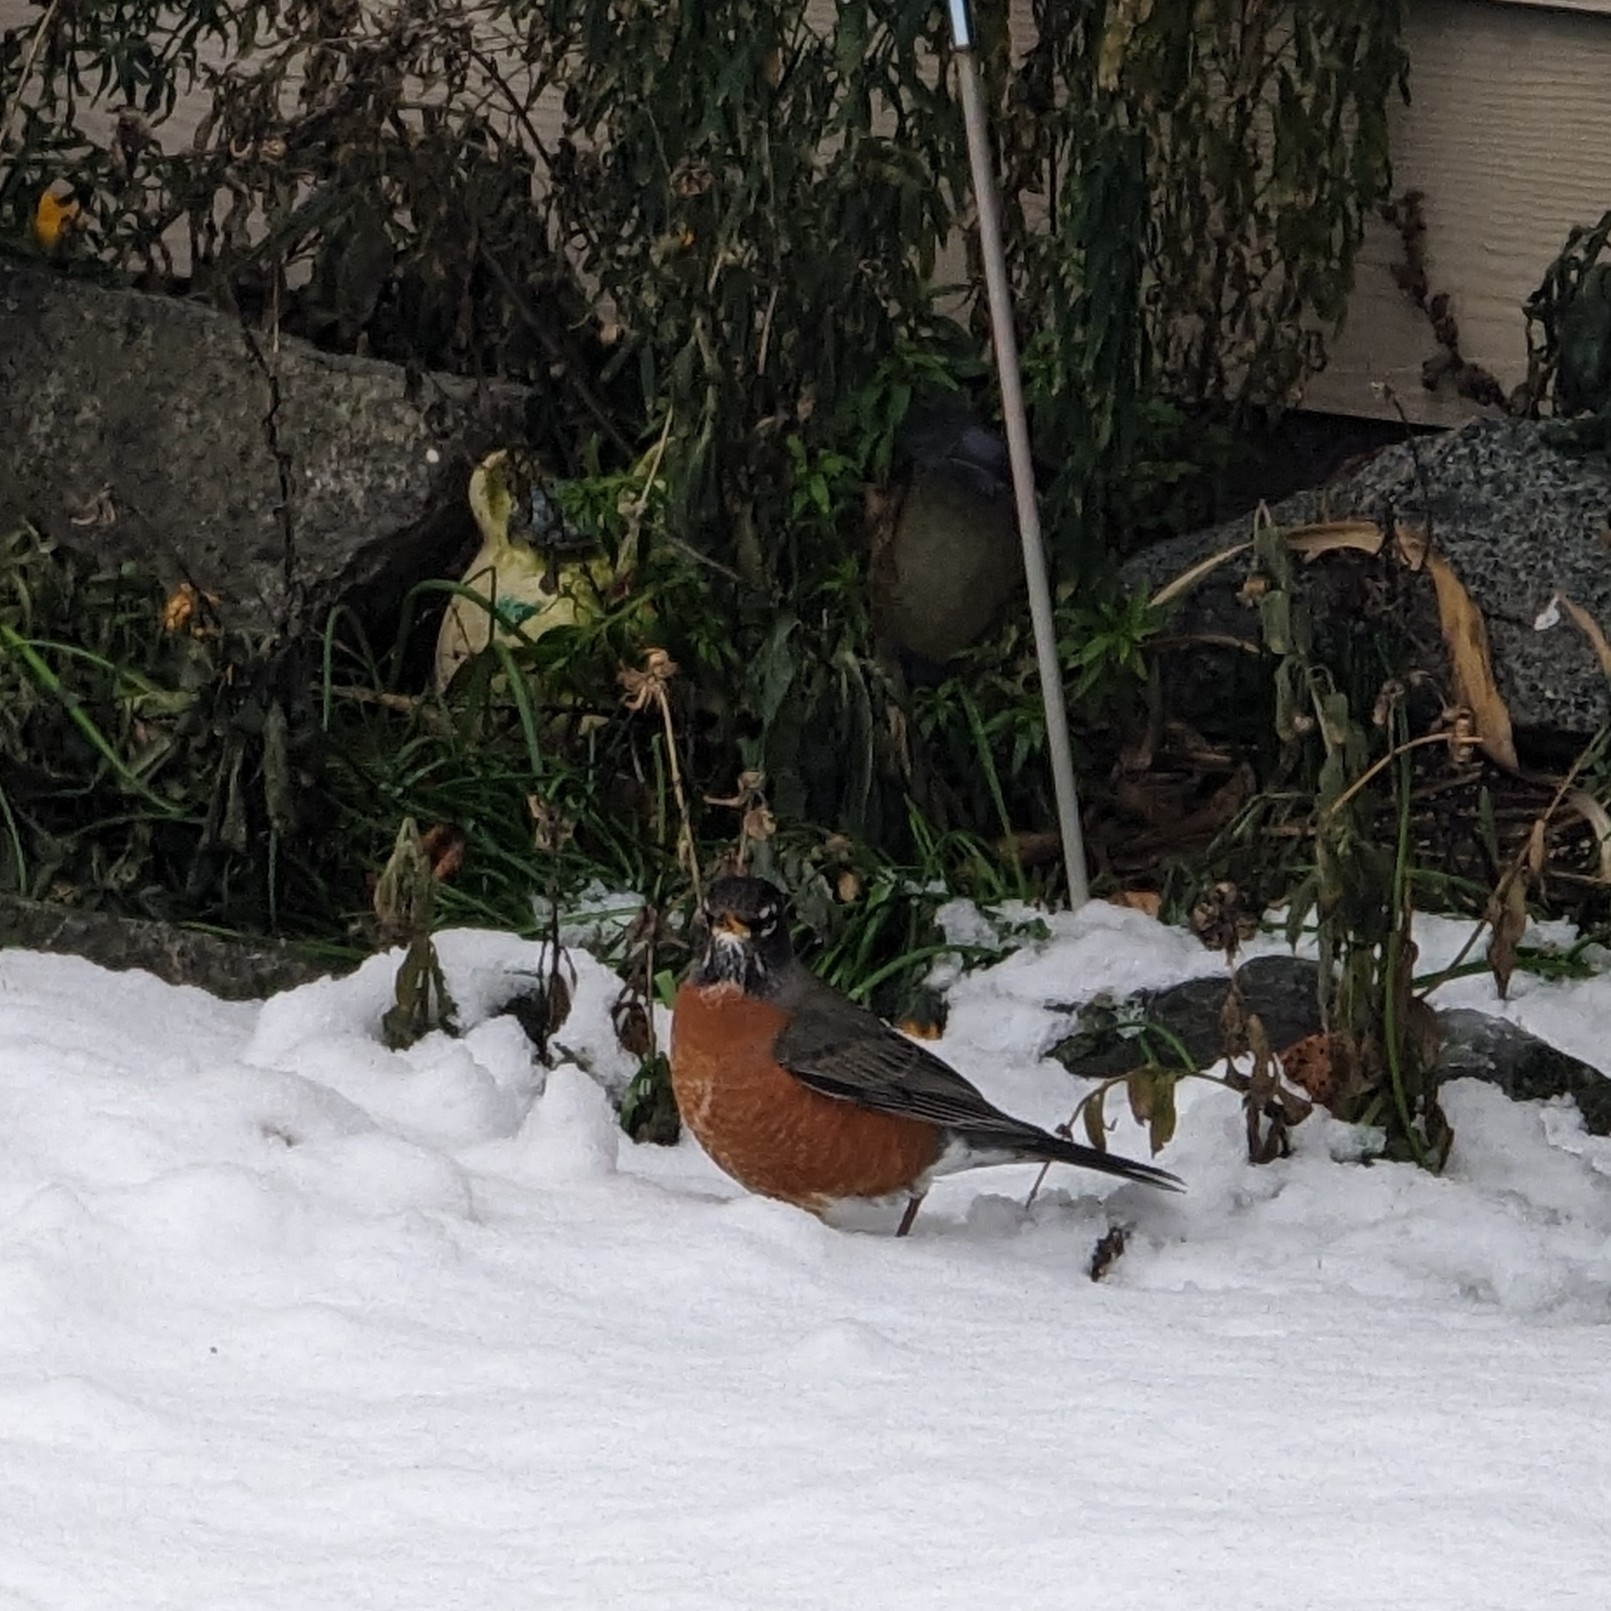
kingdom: Animalia
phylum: Chordata
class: Aves
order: Passeriformes
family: Turdidae
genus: Turdus
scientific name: Turdus migratorius
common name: American robin
